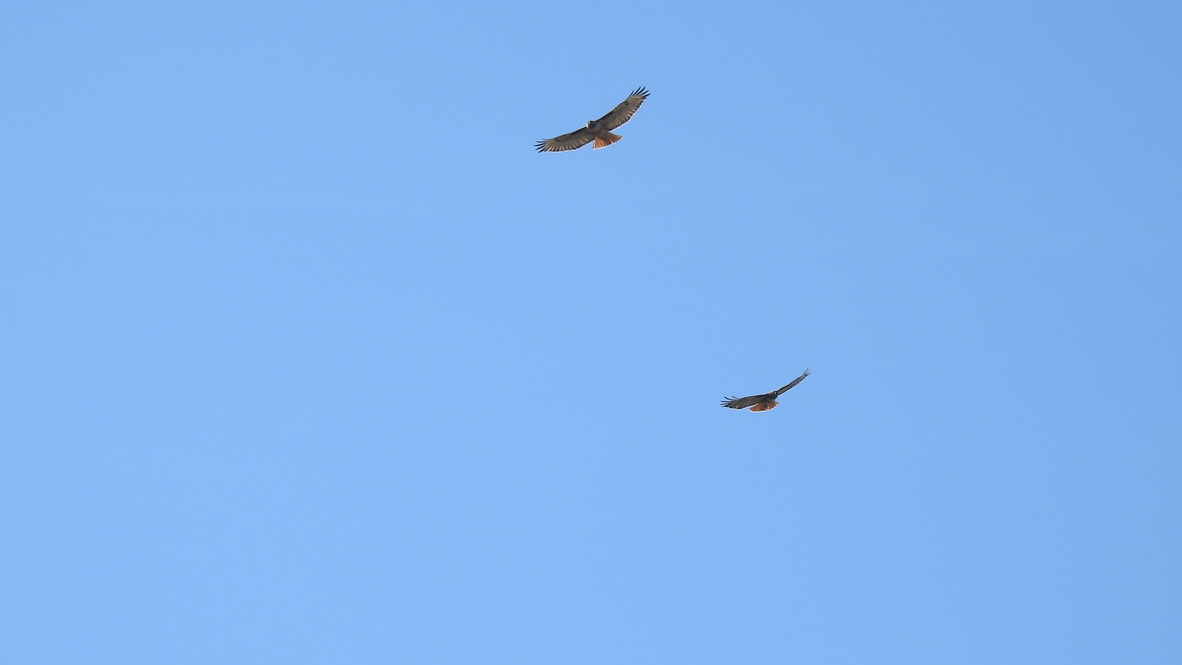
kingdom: Animalia
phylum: Chordata
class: Aves
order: Accipitriformes
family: Accipitridae
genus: Buteo
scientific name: Buteo jamaicensis
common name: Red-tailed hawk
